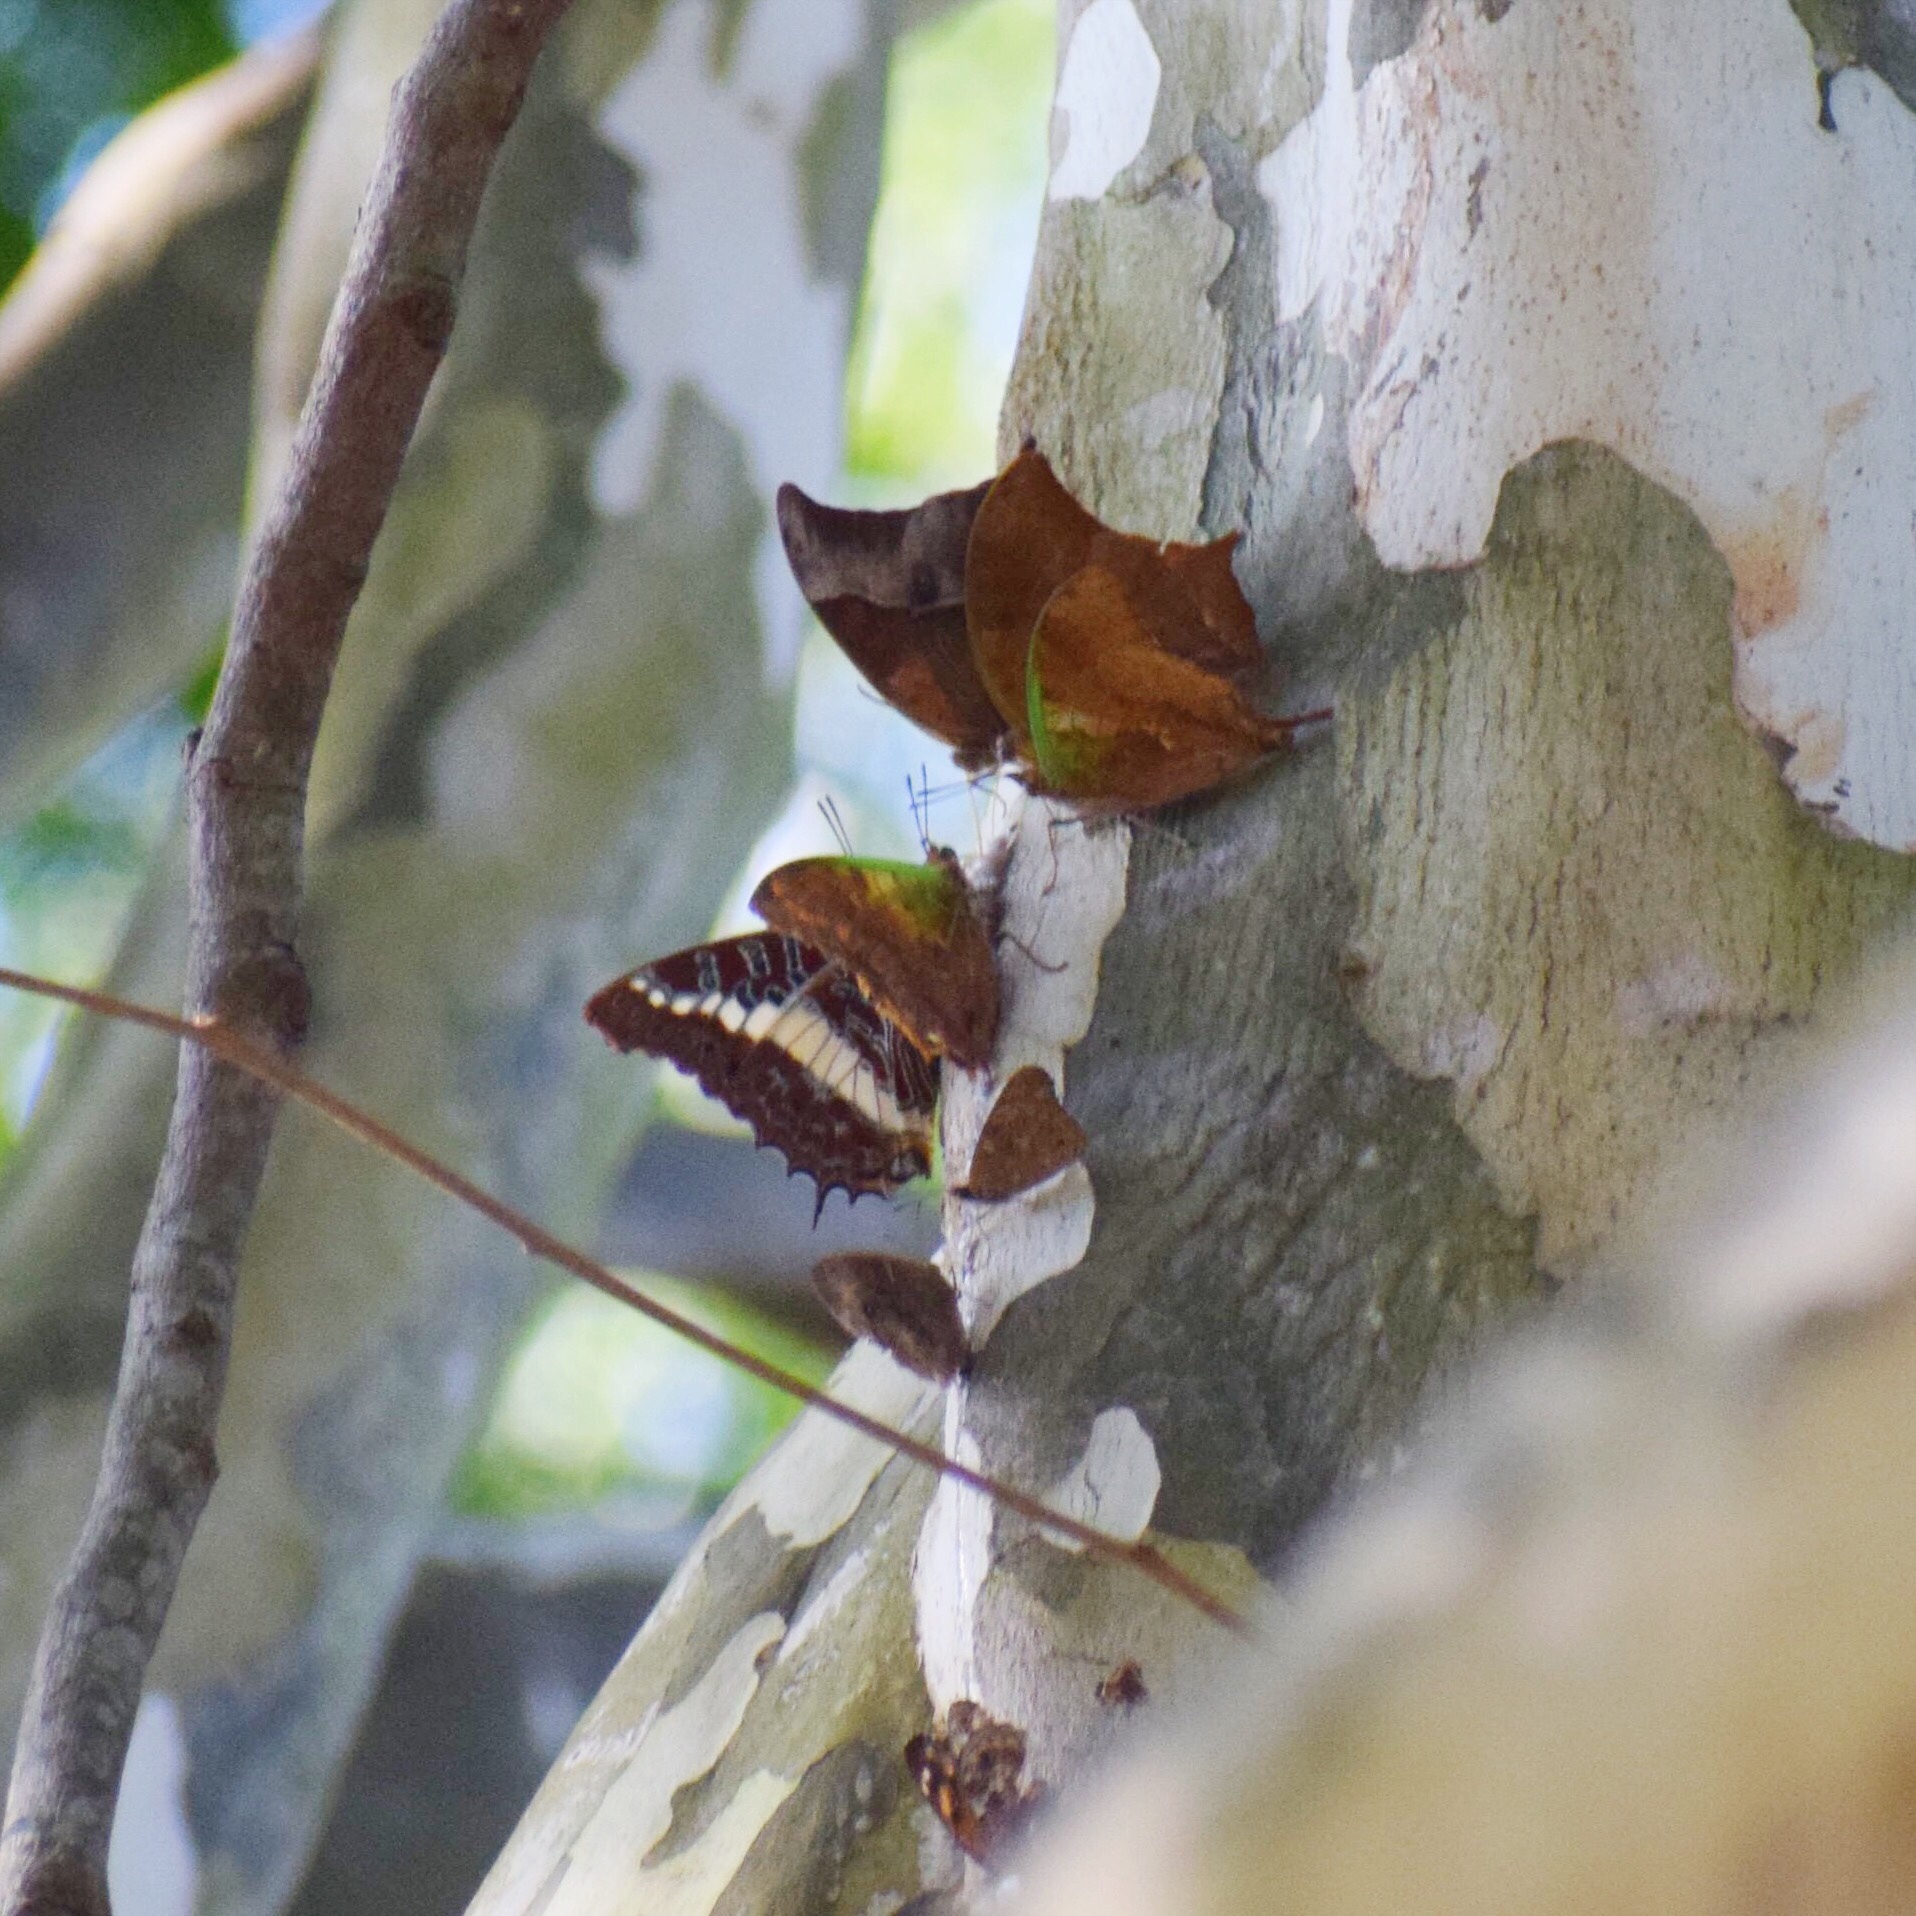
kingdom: Animalia
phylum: Arthropoda
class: Insecta
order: Lepidoptera
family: Nymphalidae
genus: Mycalesis
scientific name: Mycalesis rhacotis
